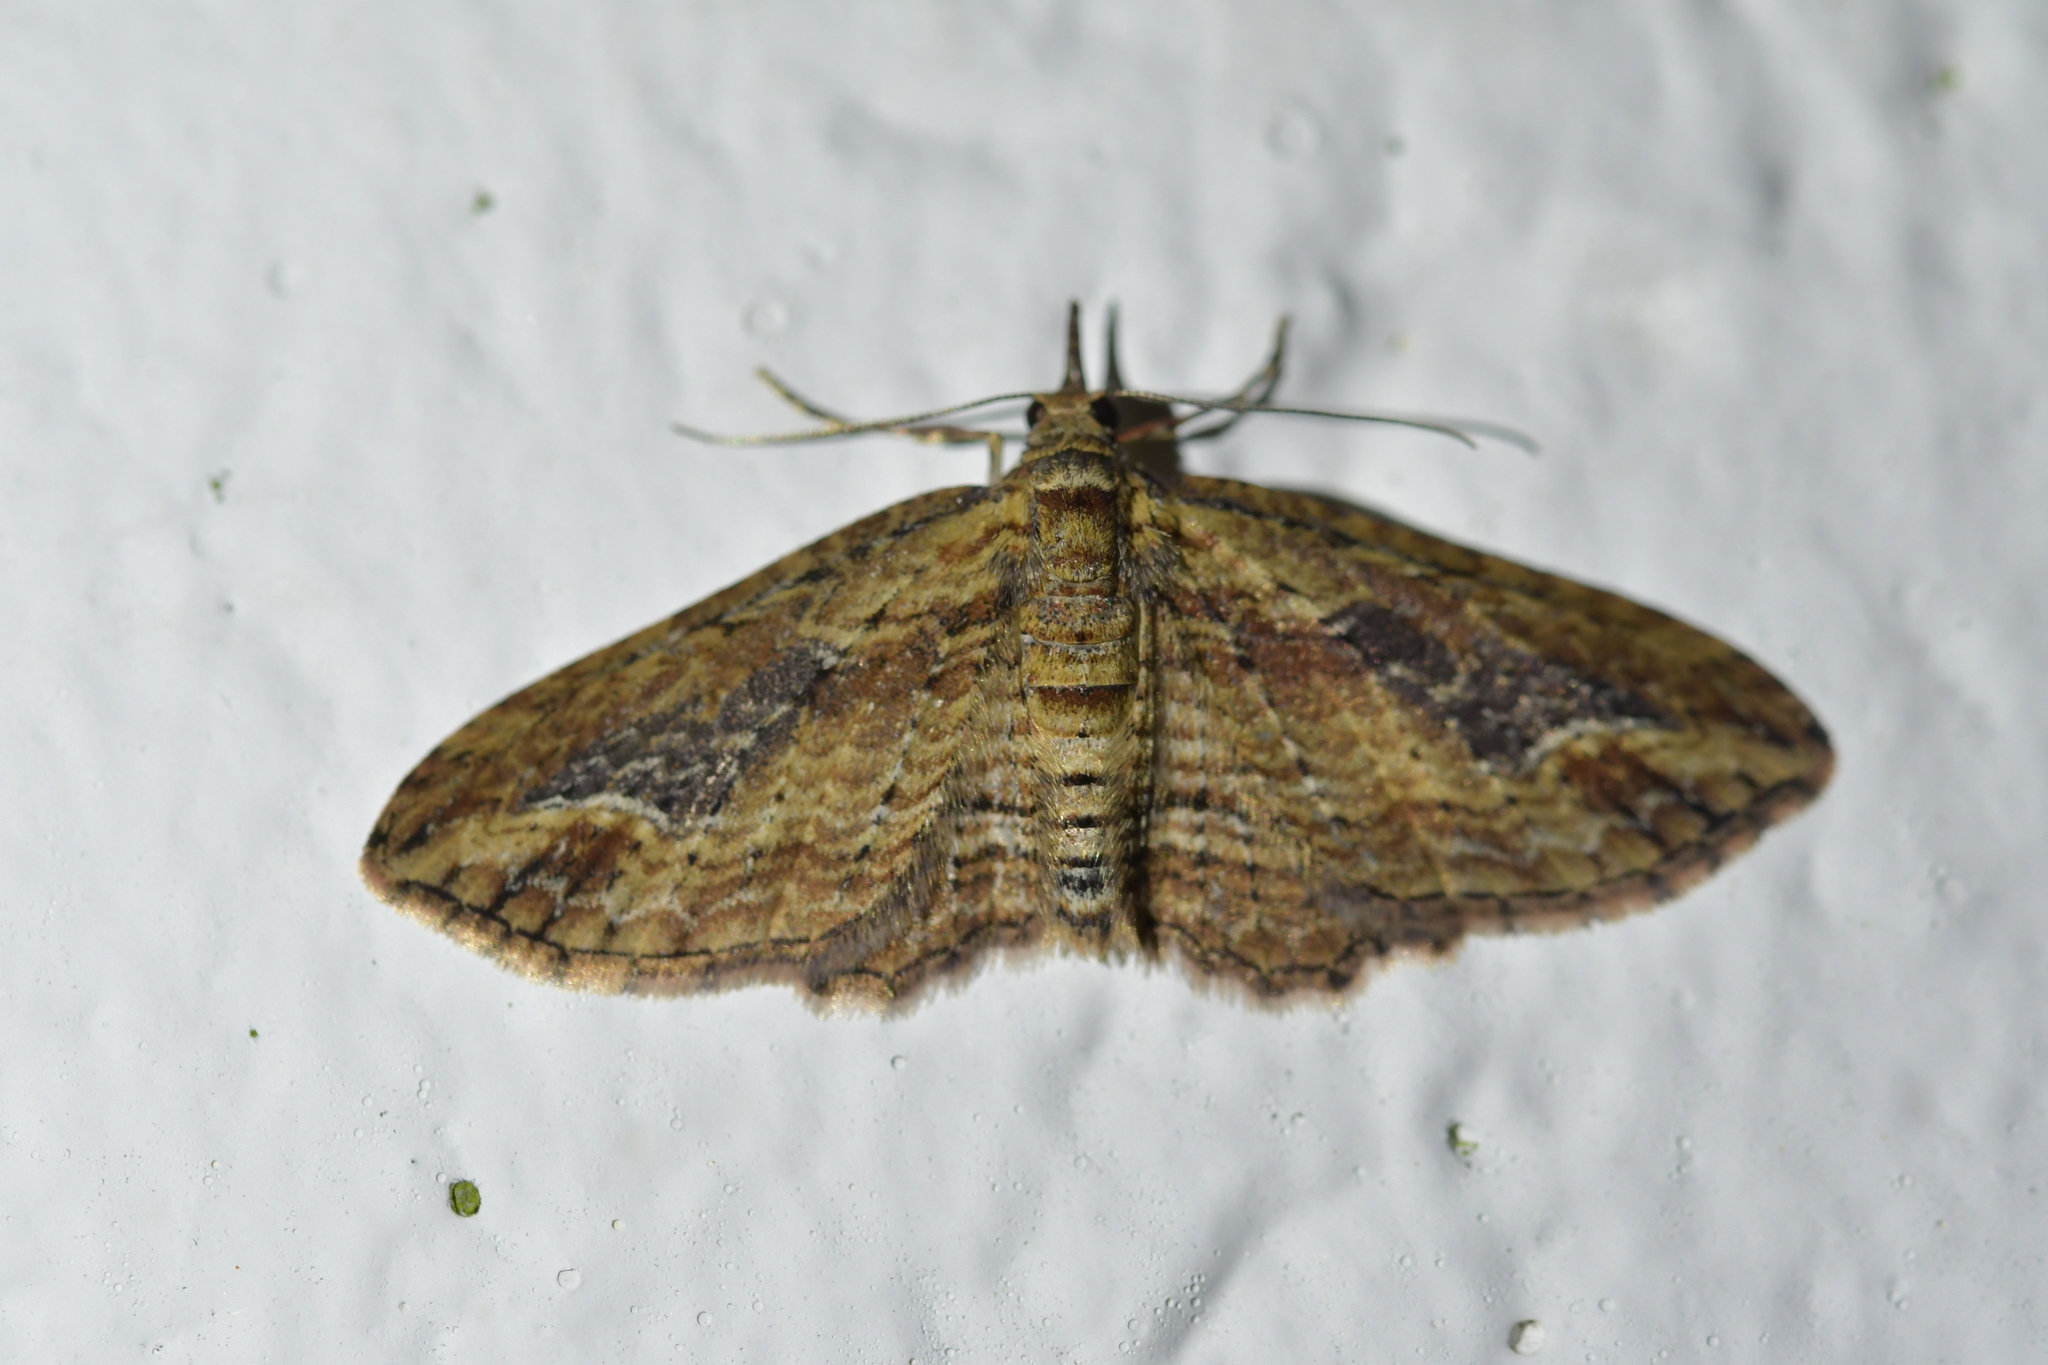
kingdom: Animalia
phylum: Arthropoda
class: Insecta
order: Lepidoptera
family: Geometridae
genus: Chloroclystis
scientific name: Chloroclystis filata
